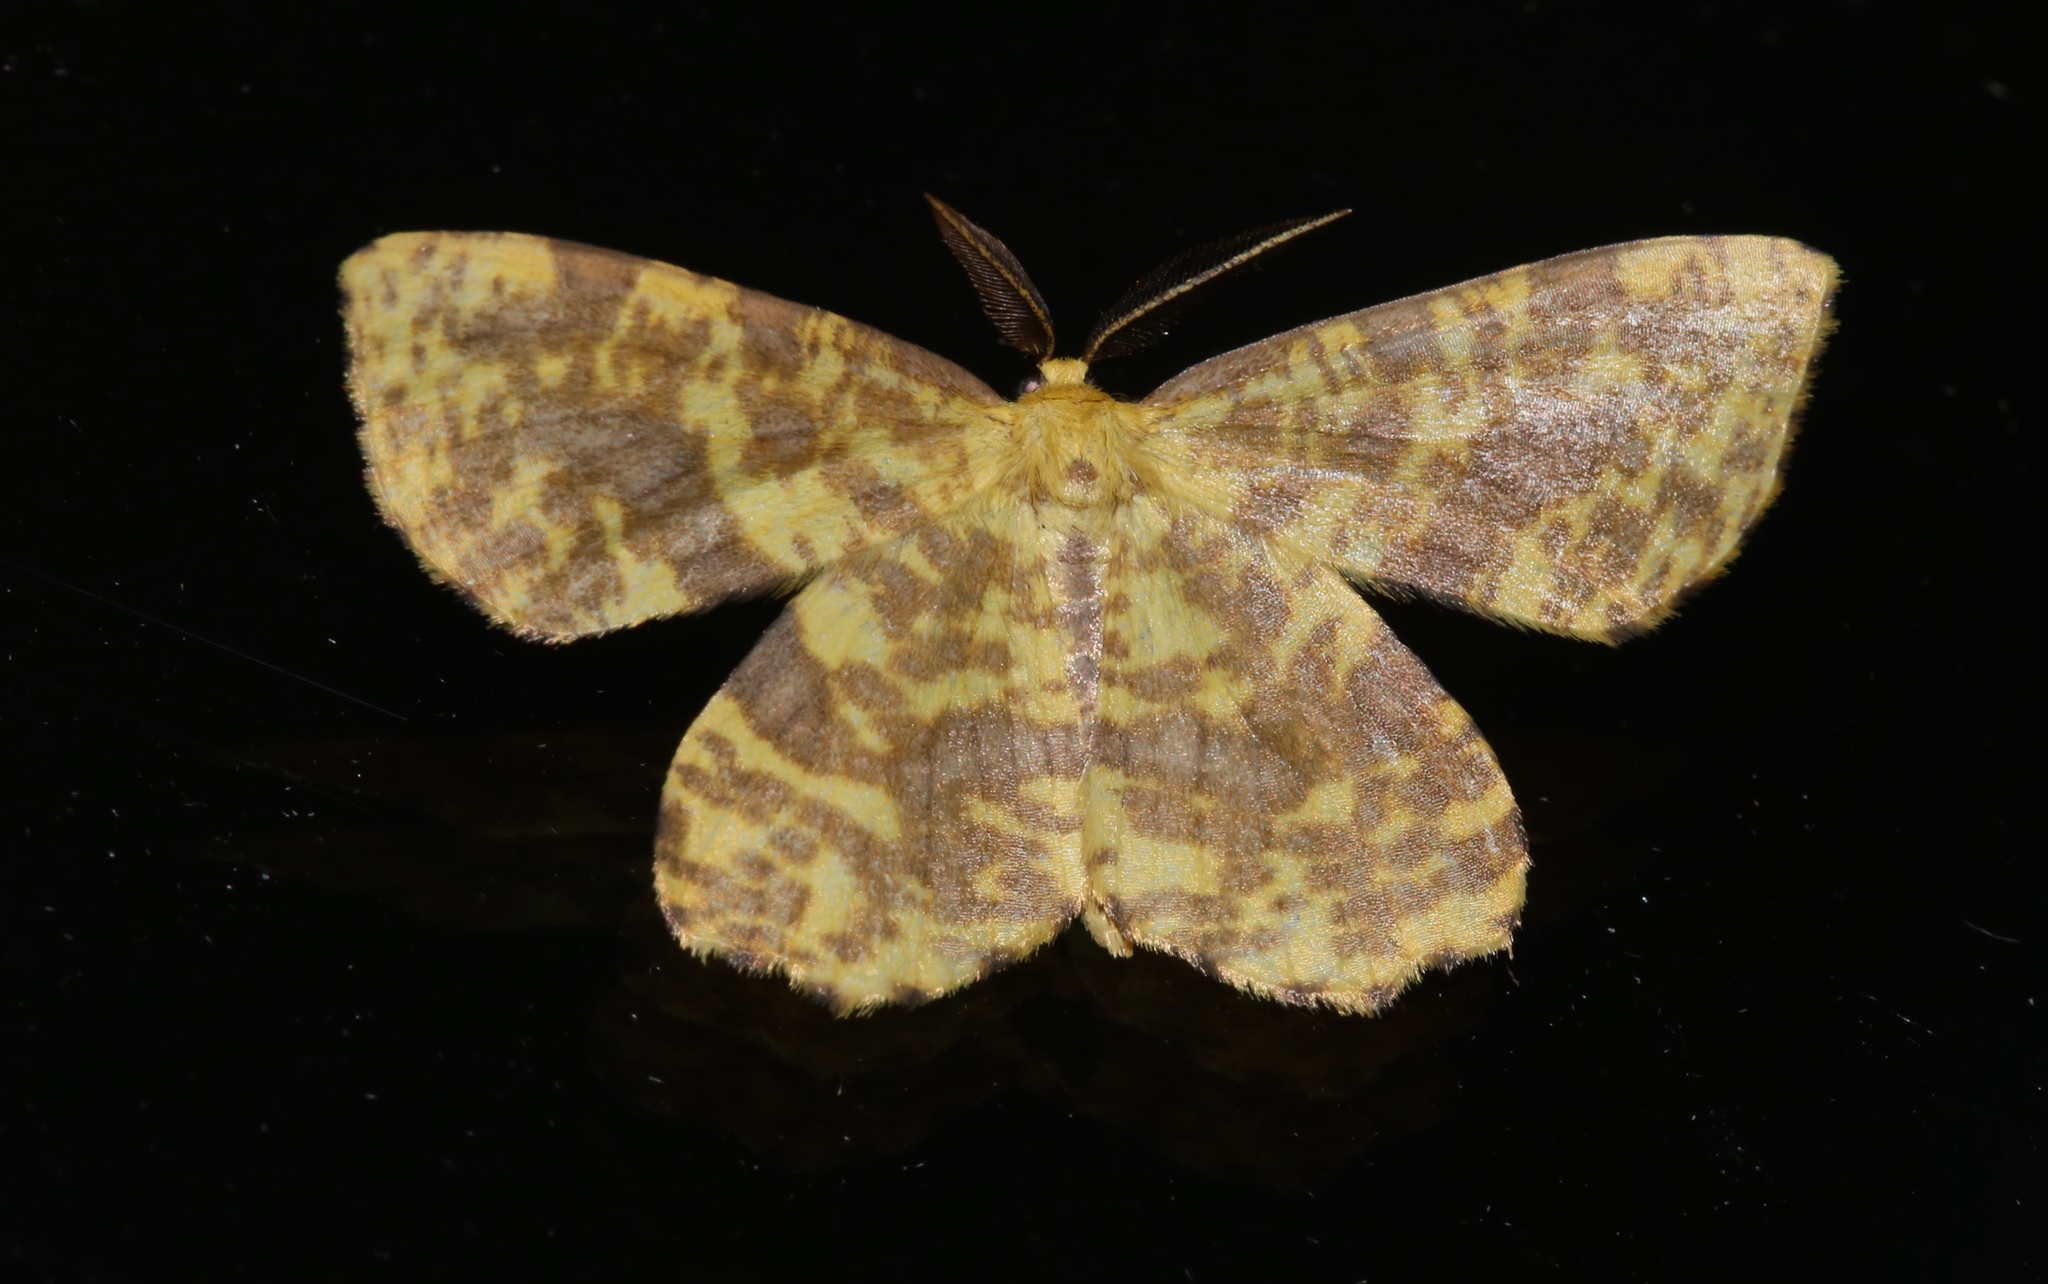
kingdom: Animalia
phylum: Arthropoda
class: Insecta
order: Lepidoptera
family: Geometridae
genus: Xanthotype
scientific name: Xanthotype
